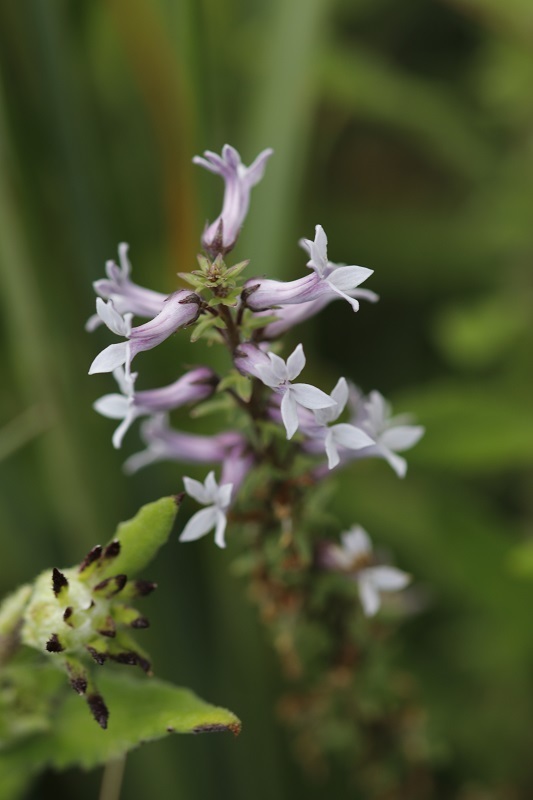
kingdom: Plantae
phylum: Tracheophyta
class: Magnoliopsida
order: Asterales
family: Campanulaceae
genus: Cyphia
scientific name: Cyphia bulbosa
